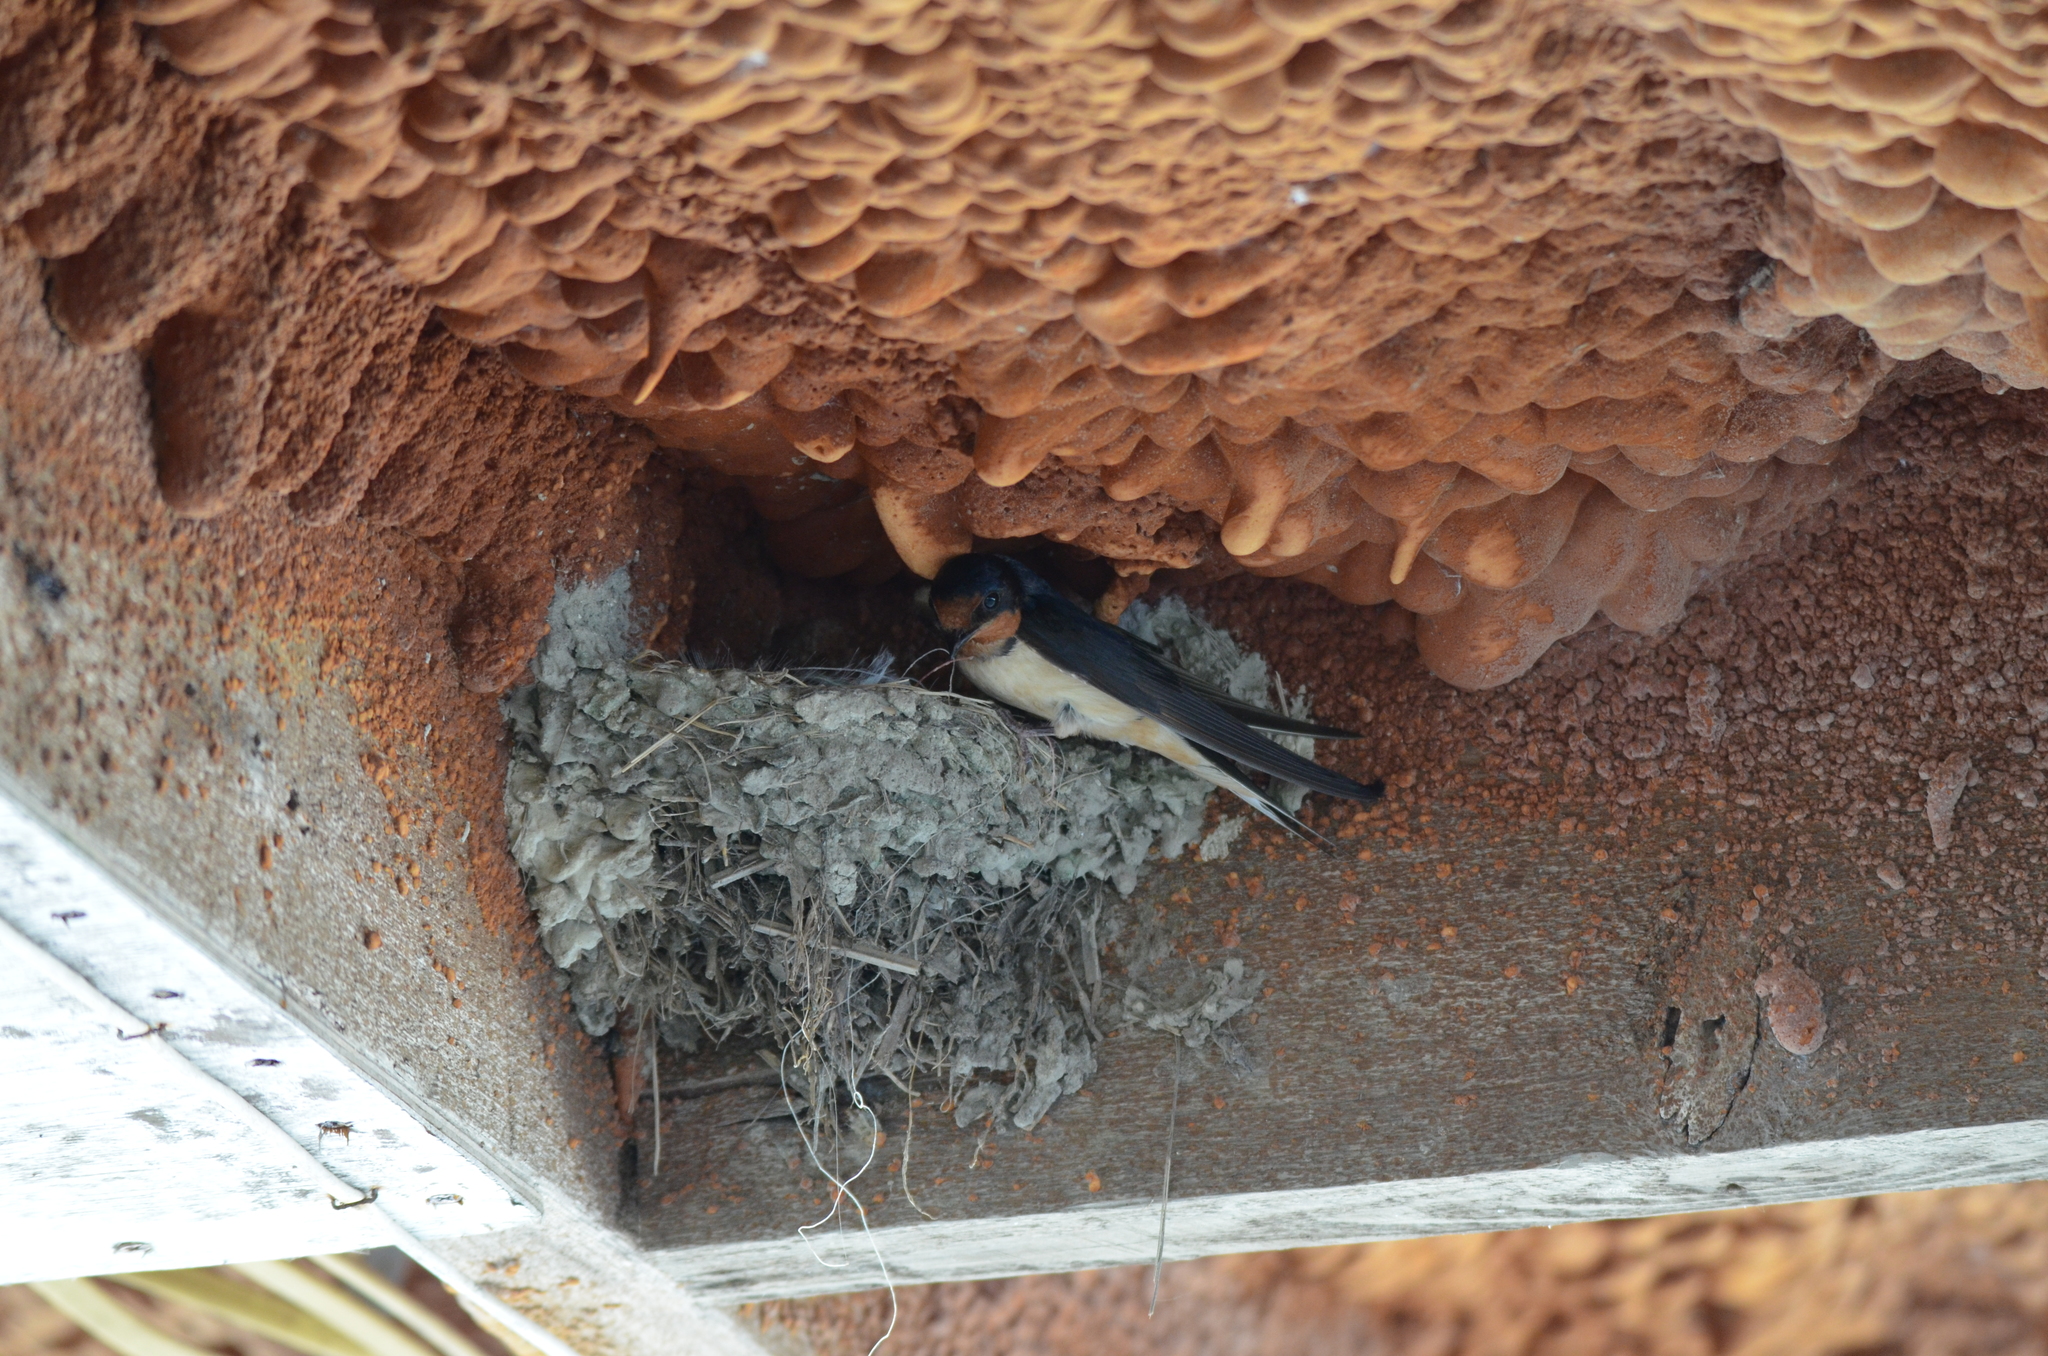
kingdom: Animalia
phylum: Chordata
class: Aves
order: Passeriformes
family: Hirundinidae
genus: Hirundo
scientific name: Hirundo rustica
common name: Barn swallow
